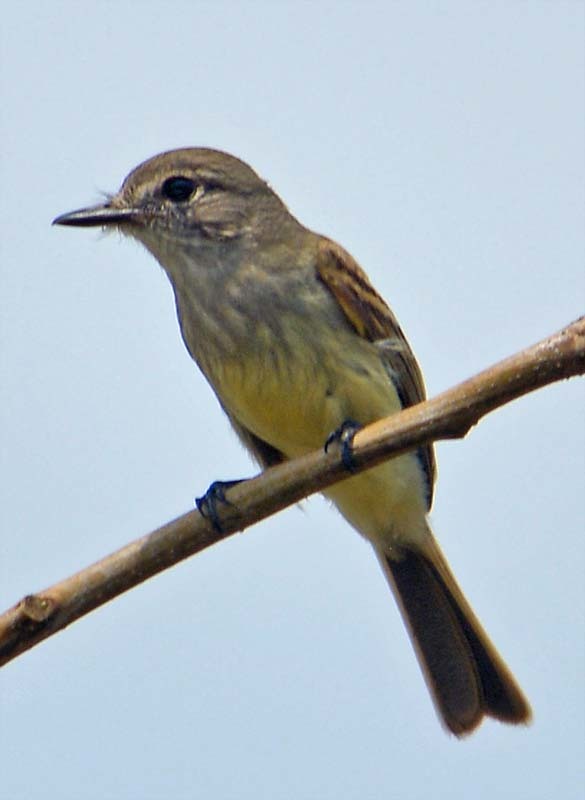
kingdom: Animalia
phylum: Chordata
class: Aves
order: Passeriformes
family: Tyrannidae
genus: Deltarhynchus
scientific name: Deltarhynchus flammulatus
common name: Flammulated flycatcher
